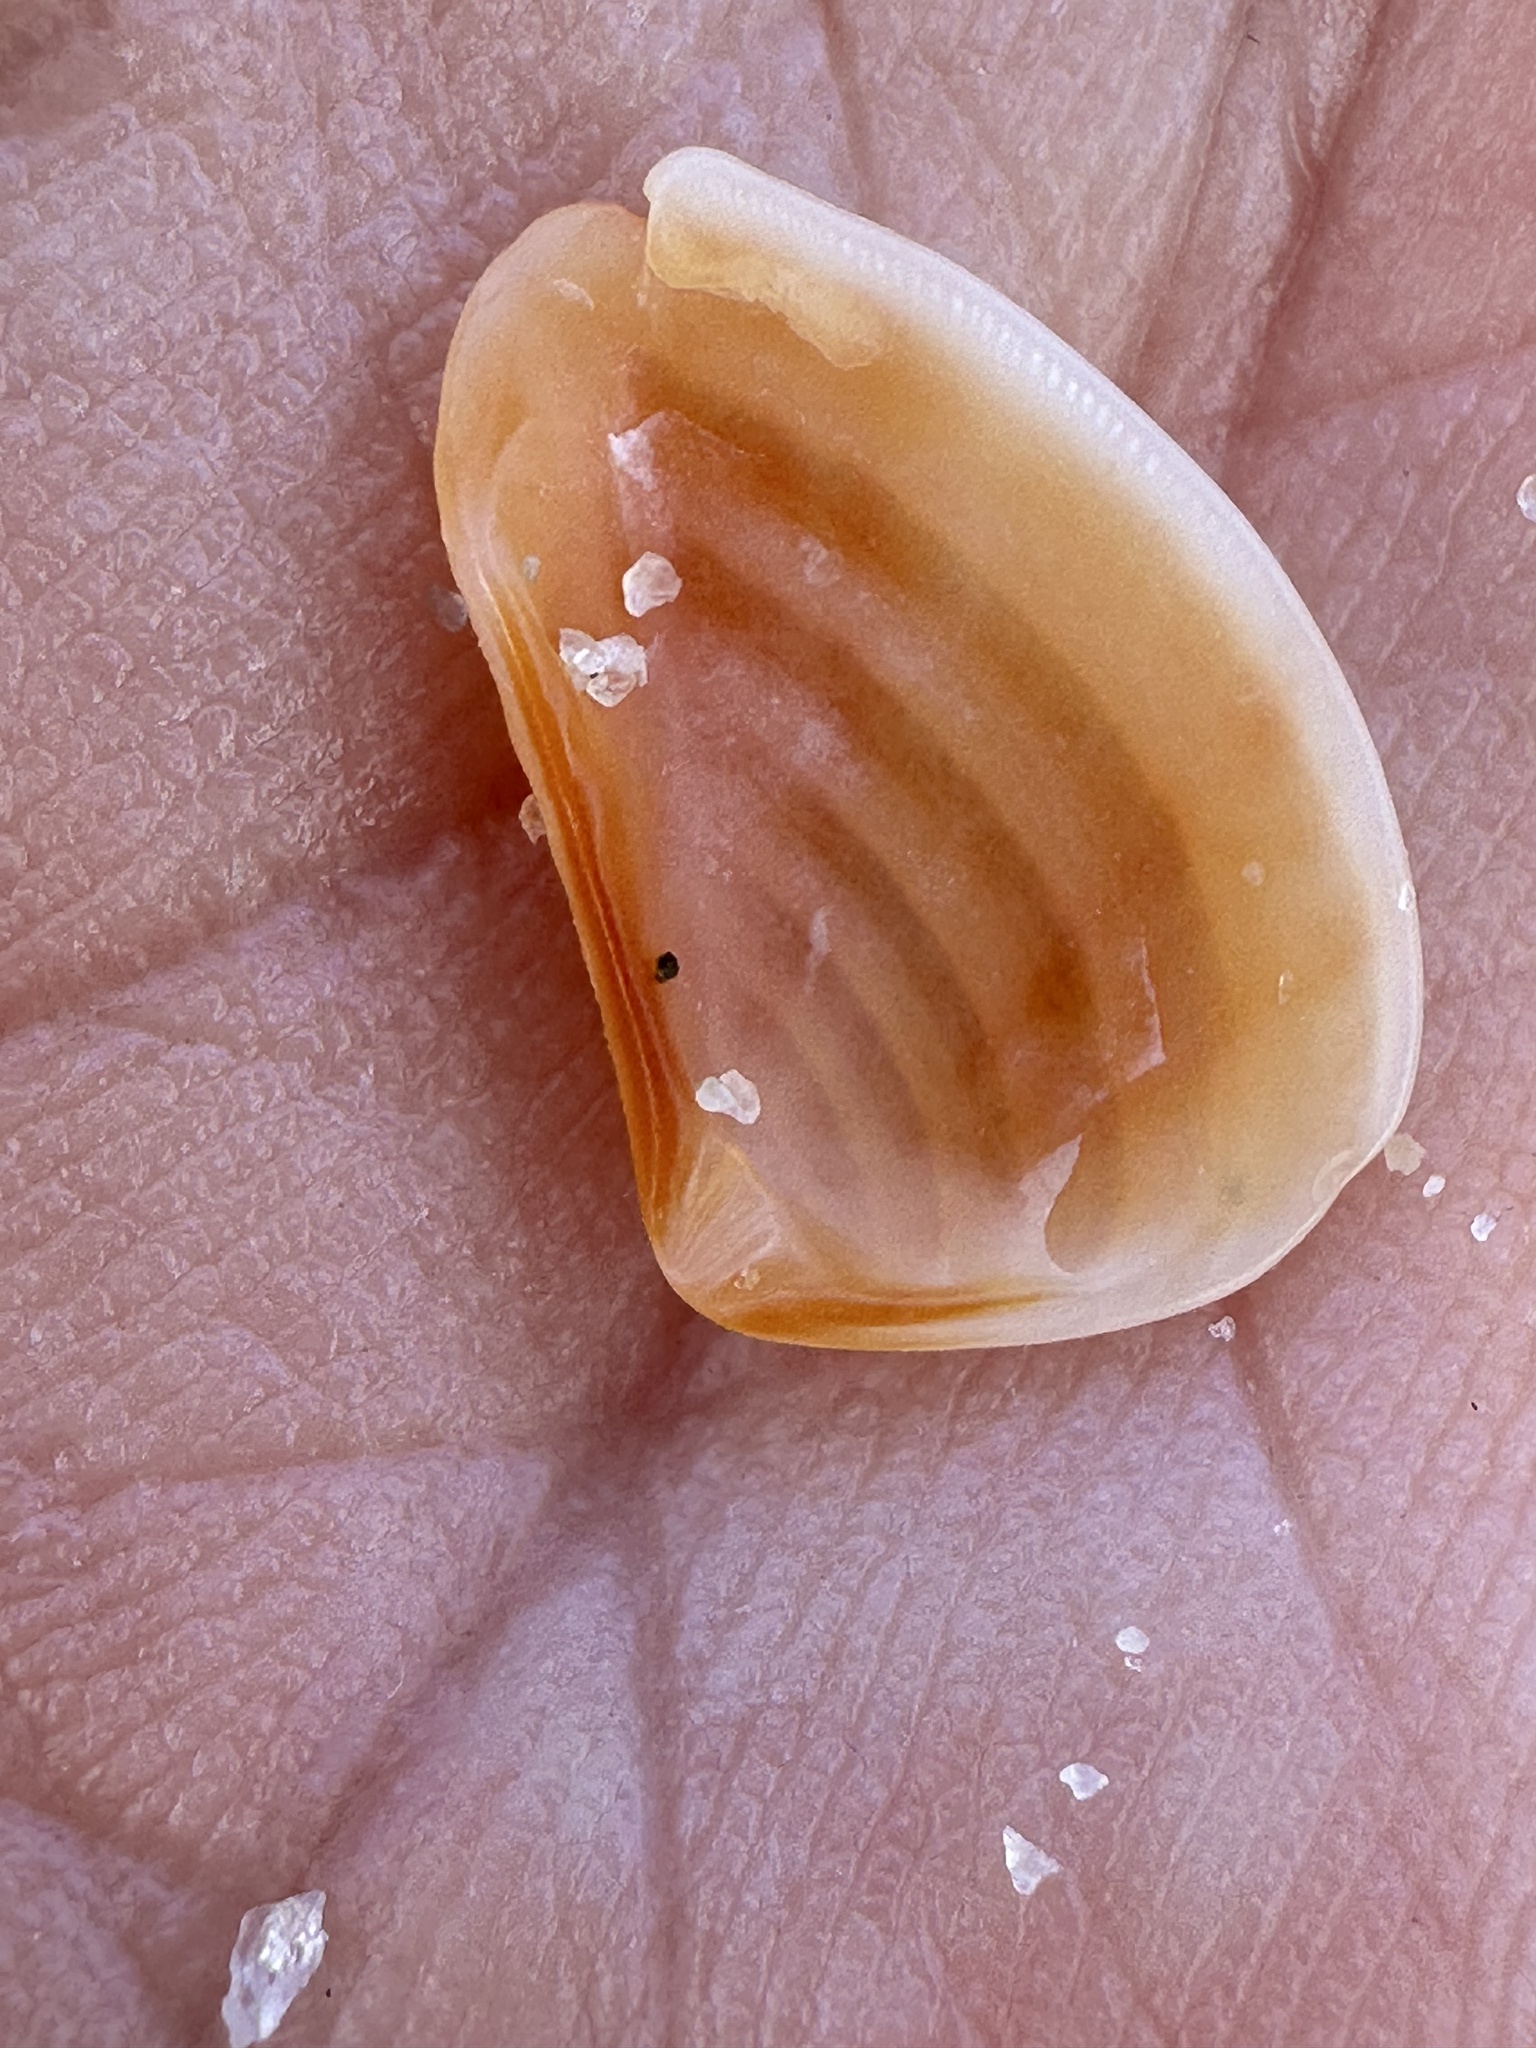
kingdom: Animalia
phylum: Mollusca
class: Bivalvia
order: Carditida
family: Crassatellidae
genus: Bathytormus
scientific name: Bathytormus radiatus
